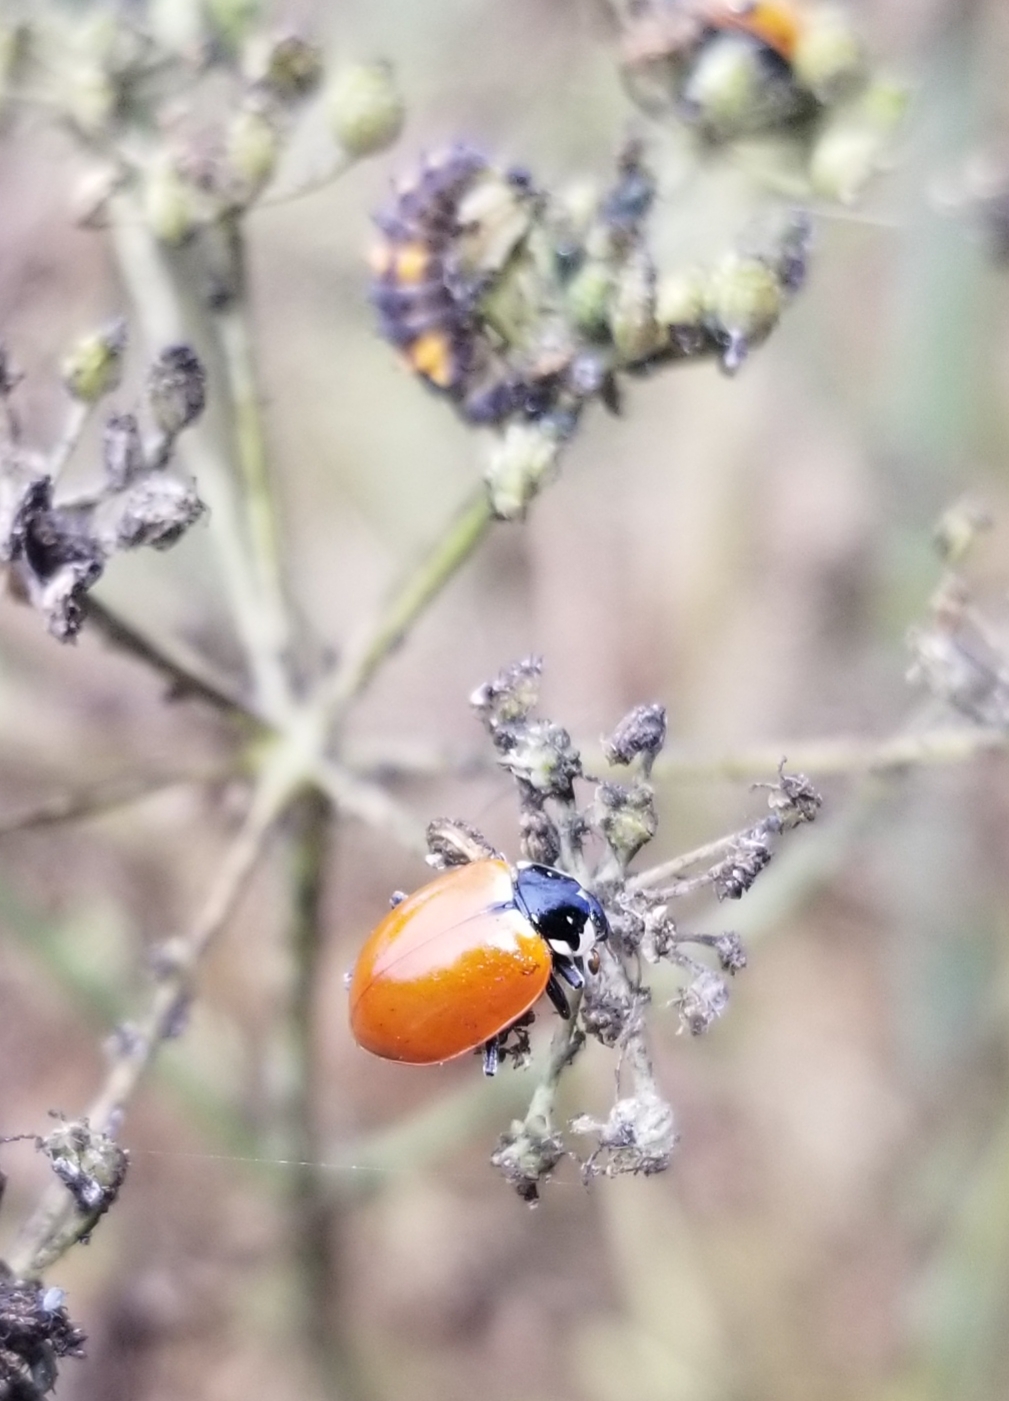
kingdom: Animalia
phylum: Arthropoda
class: Insecta
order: Coleoptera
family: Coccinellidae
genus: Hippodamia
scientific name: Hippodamia quinquesignata
